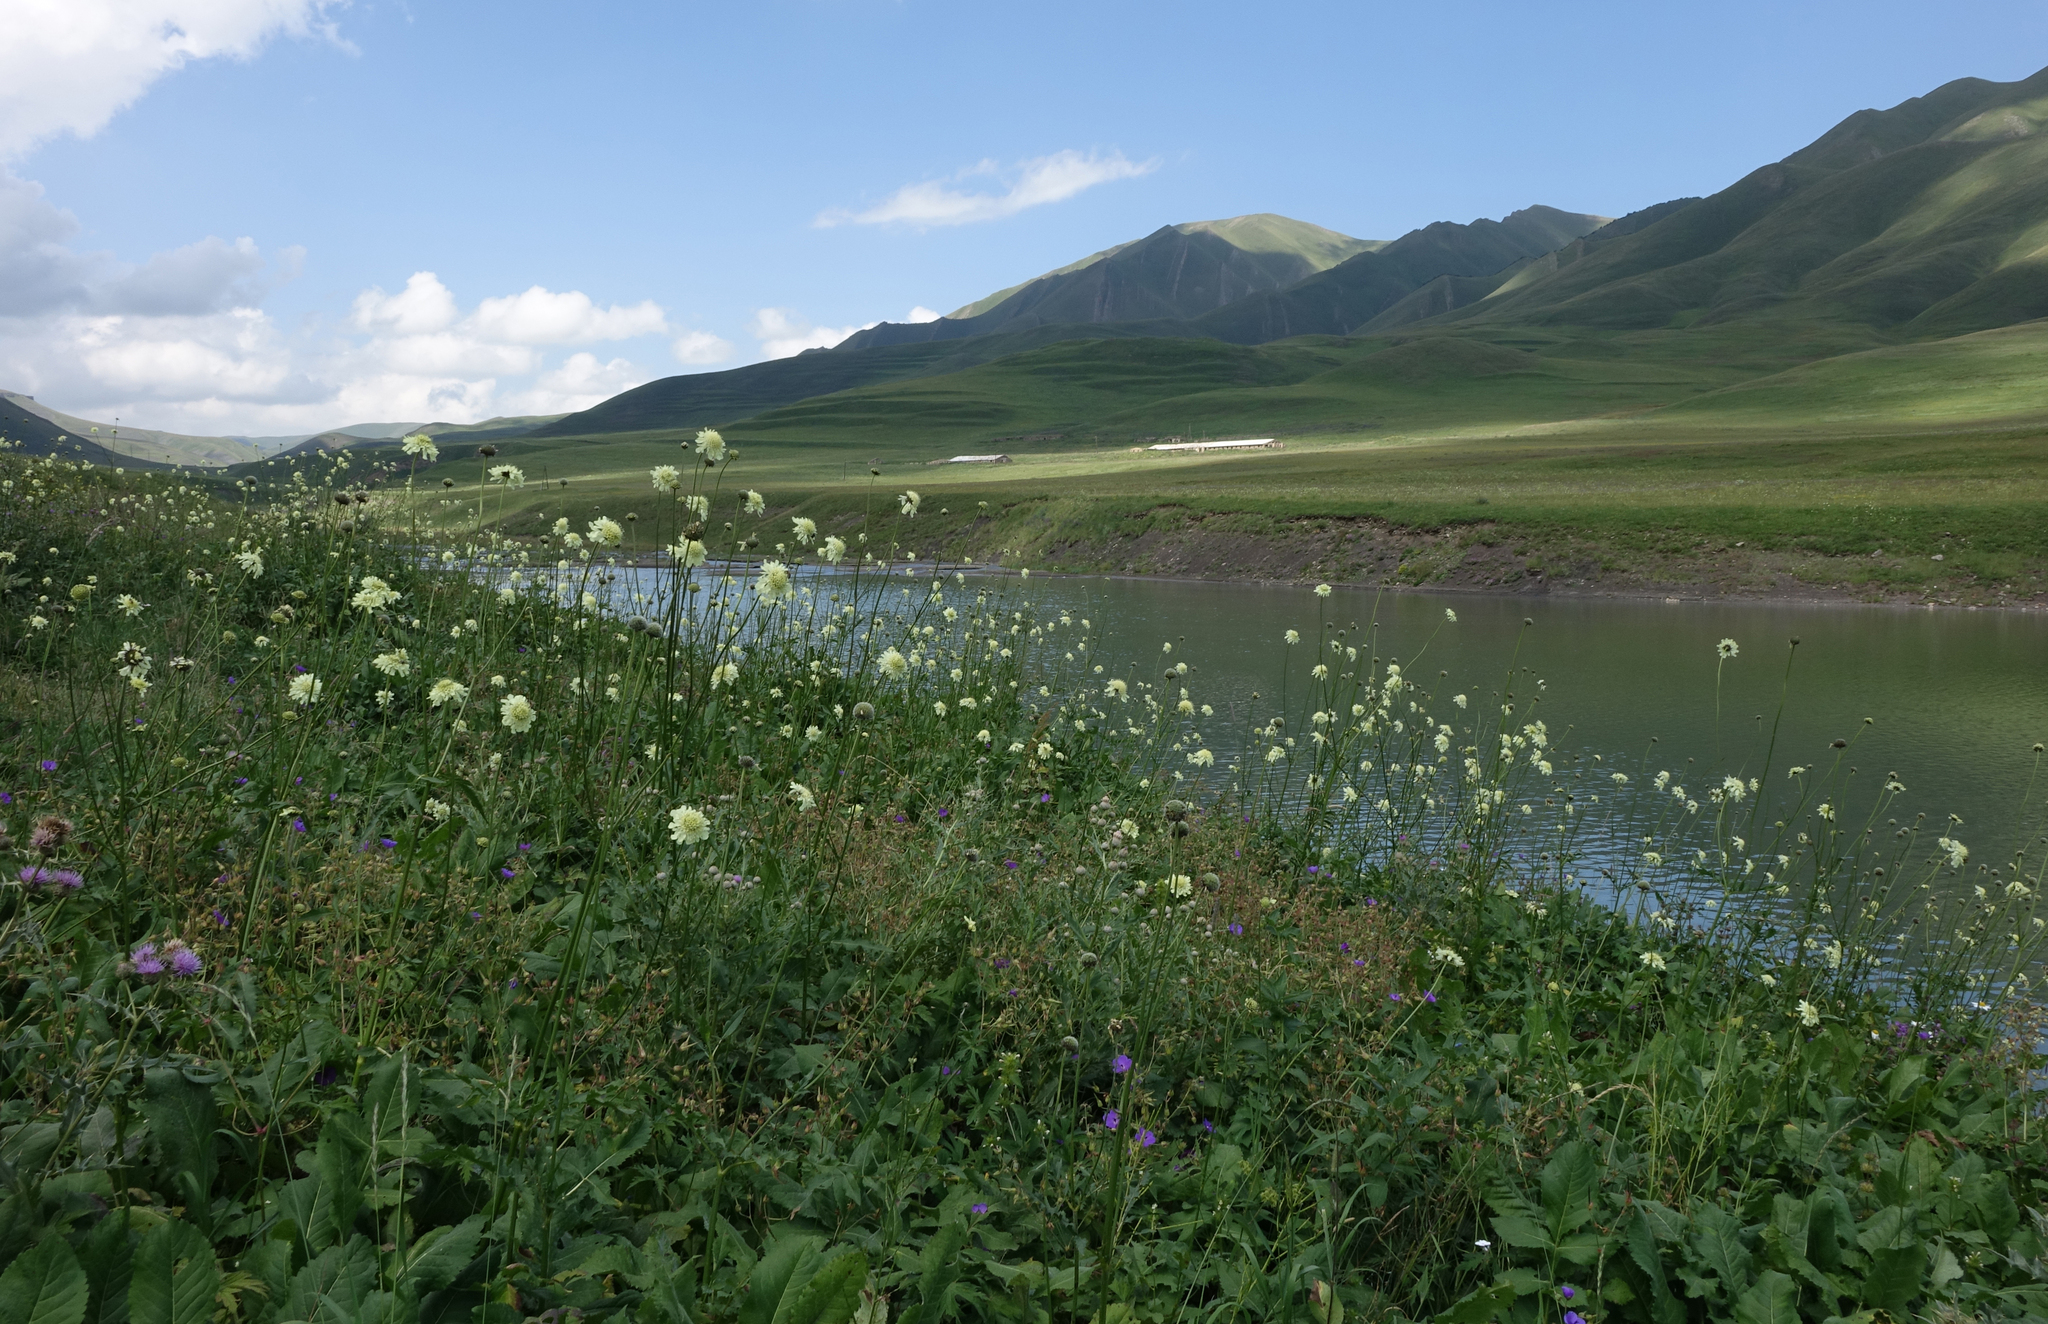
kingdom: Plantae
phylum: Tracheophyta
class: Magnoliopsida
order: Dipsacales
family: Caprifoliaceae
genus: Cephalaria
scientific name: Cephalaria gigantea
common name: Tatarian cephalaria
